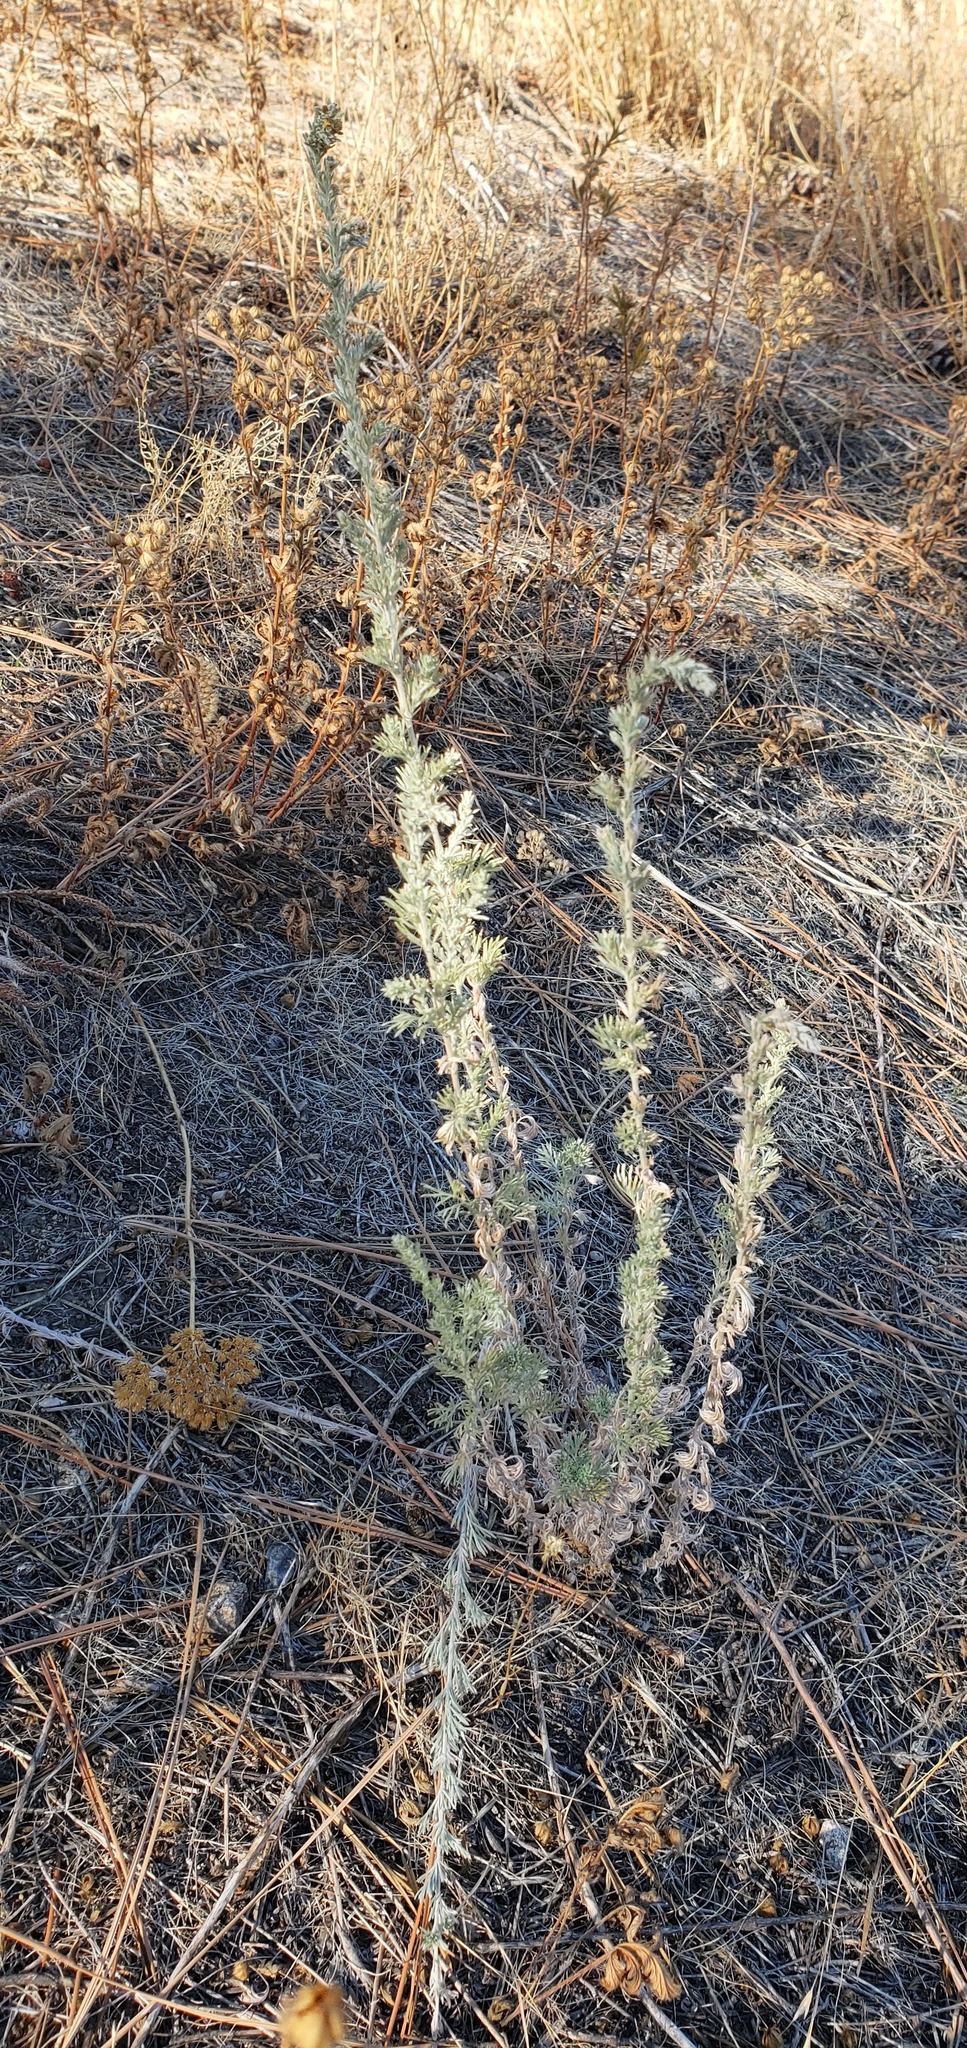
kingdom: Plantae
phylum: Tracheophyta
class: Magnoliopsida
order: Asterales
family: Asteraceae
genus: Artemisia
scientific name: Artemisia frigida
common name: Prairie sagewort
